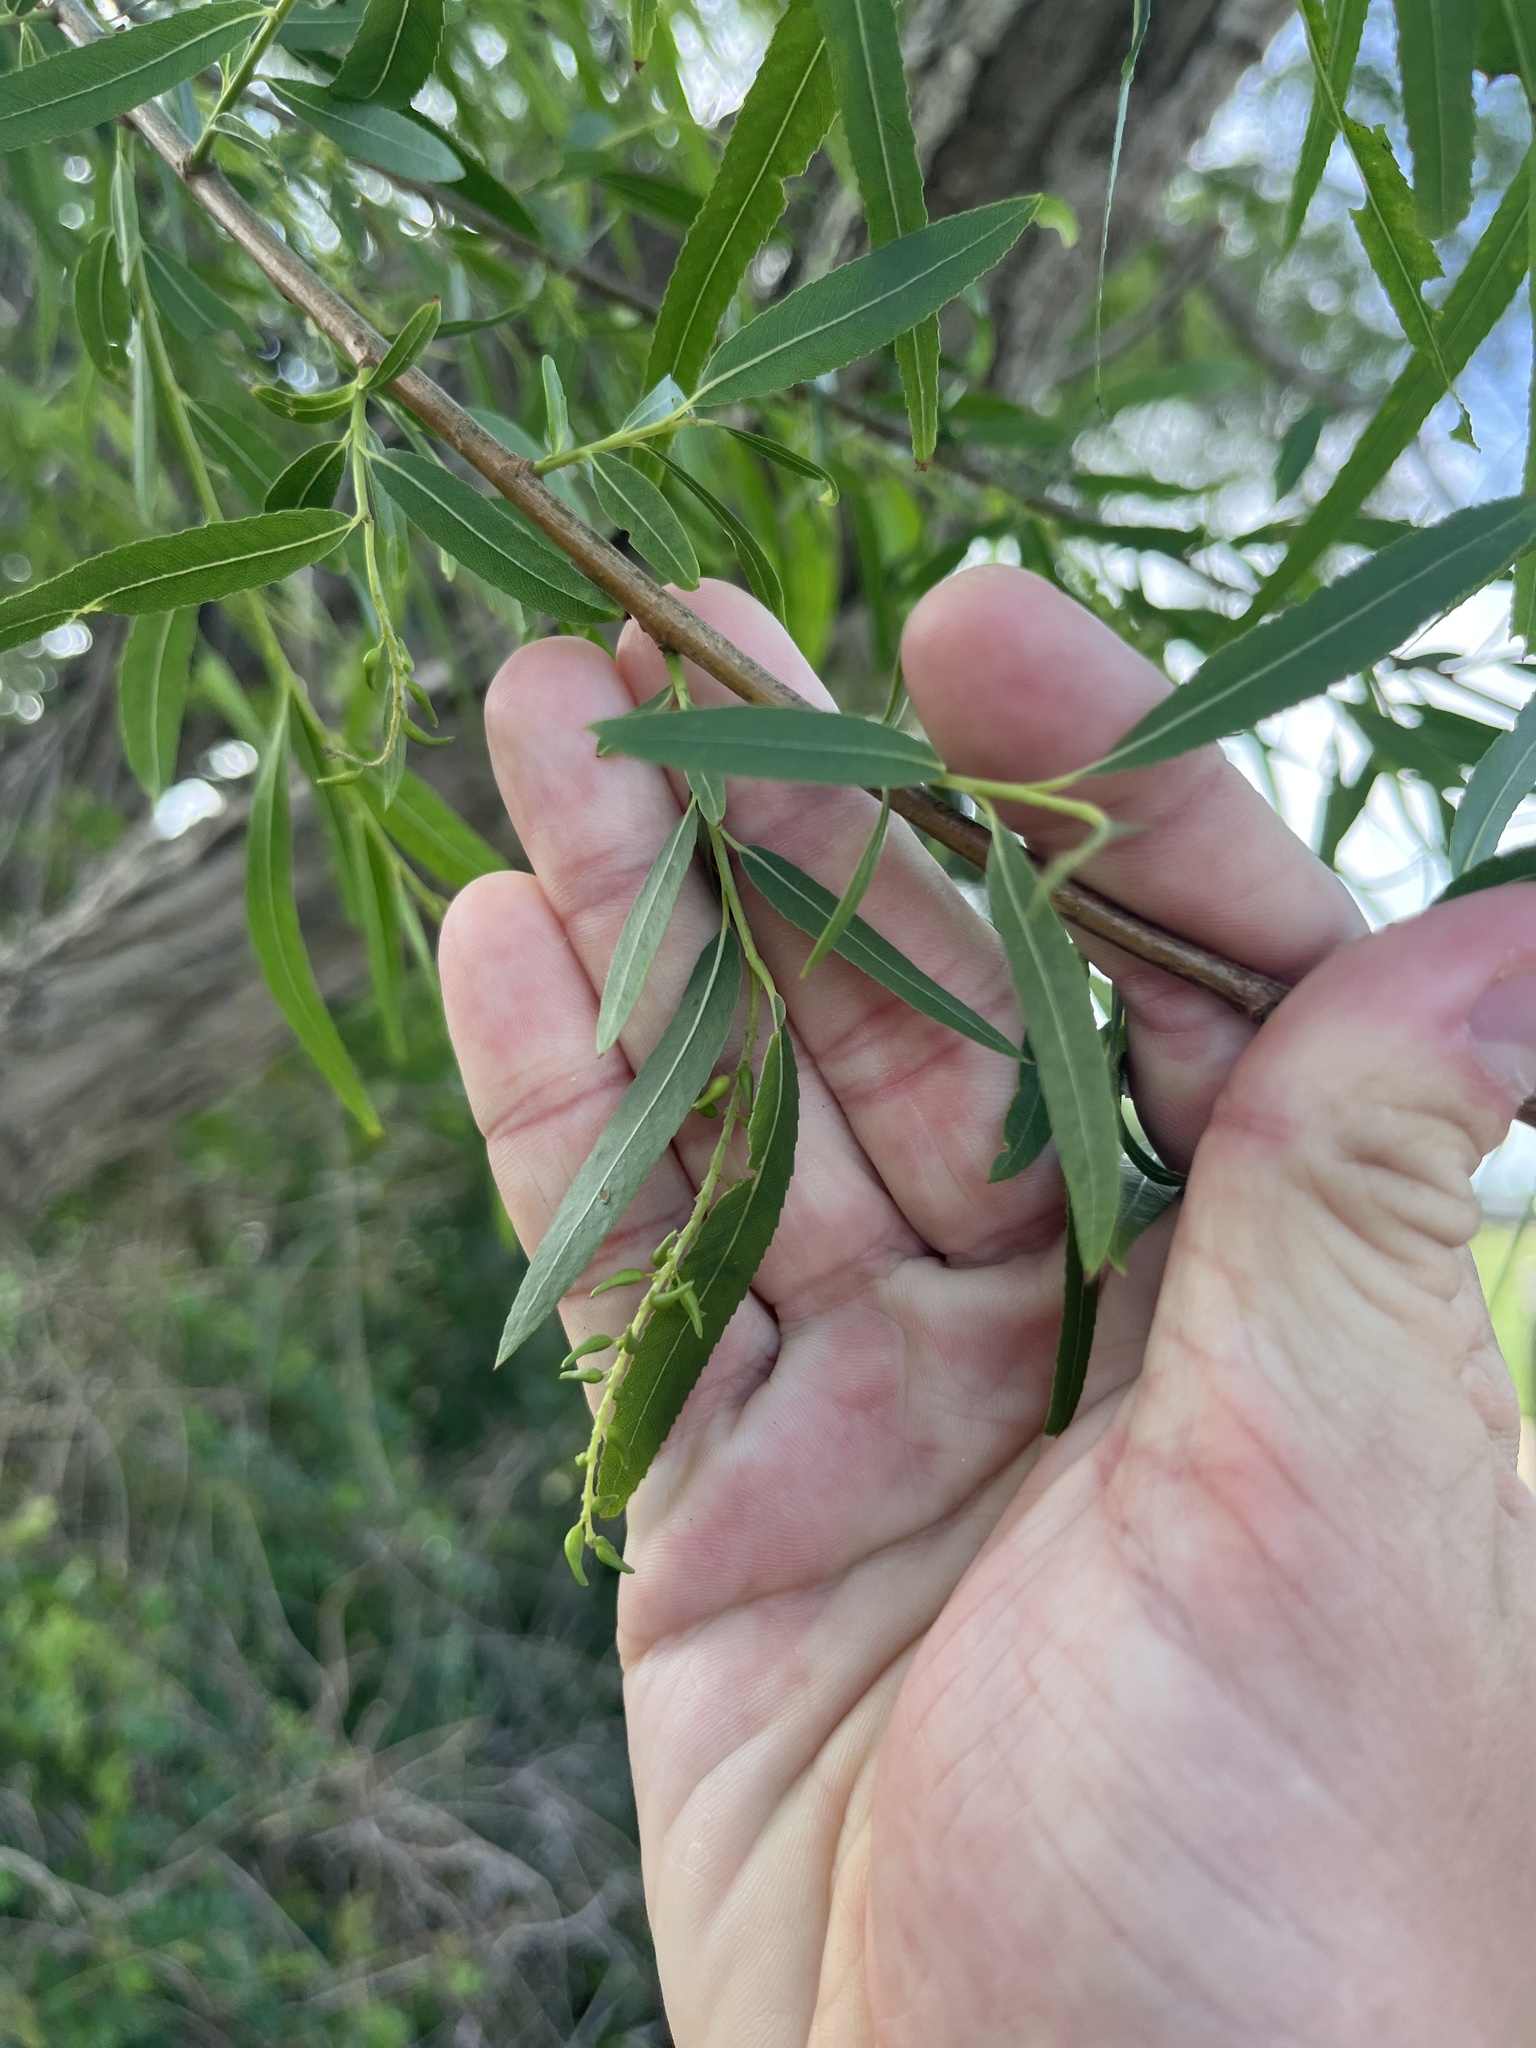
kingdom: Plantae
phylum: Tracheophyta
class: Magnoliopsida
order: Malpighiales
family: Salicaceae
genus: Salix
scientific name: Salix nigra
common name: Black willow
